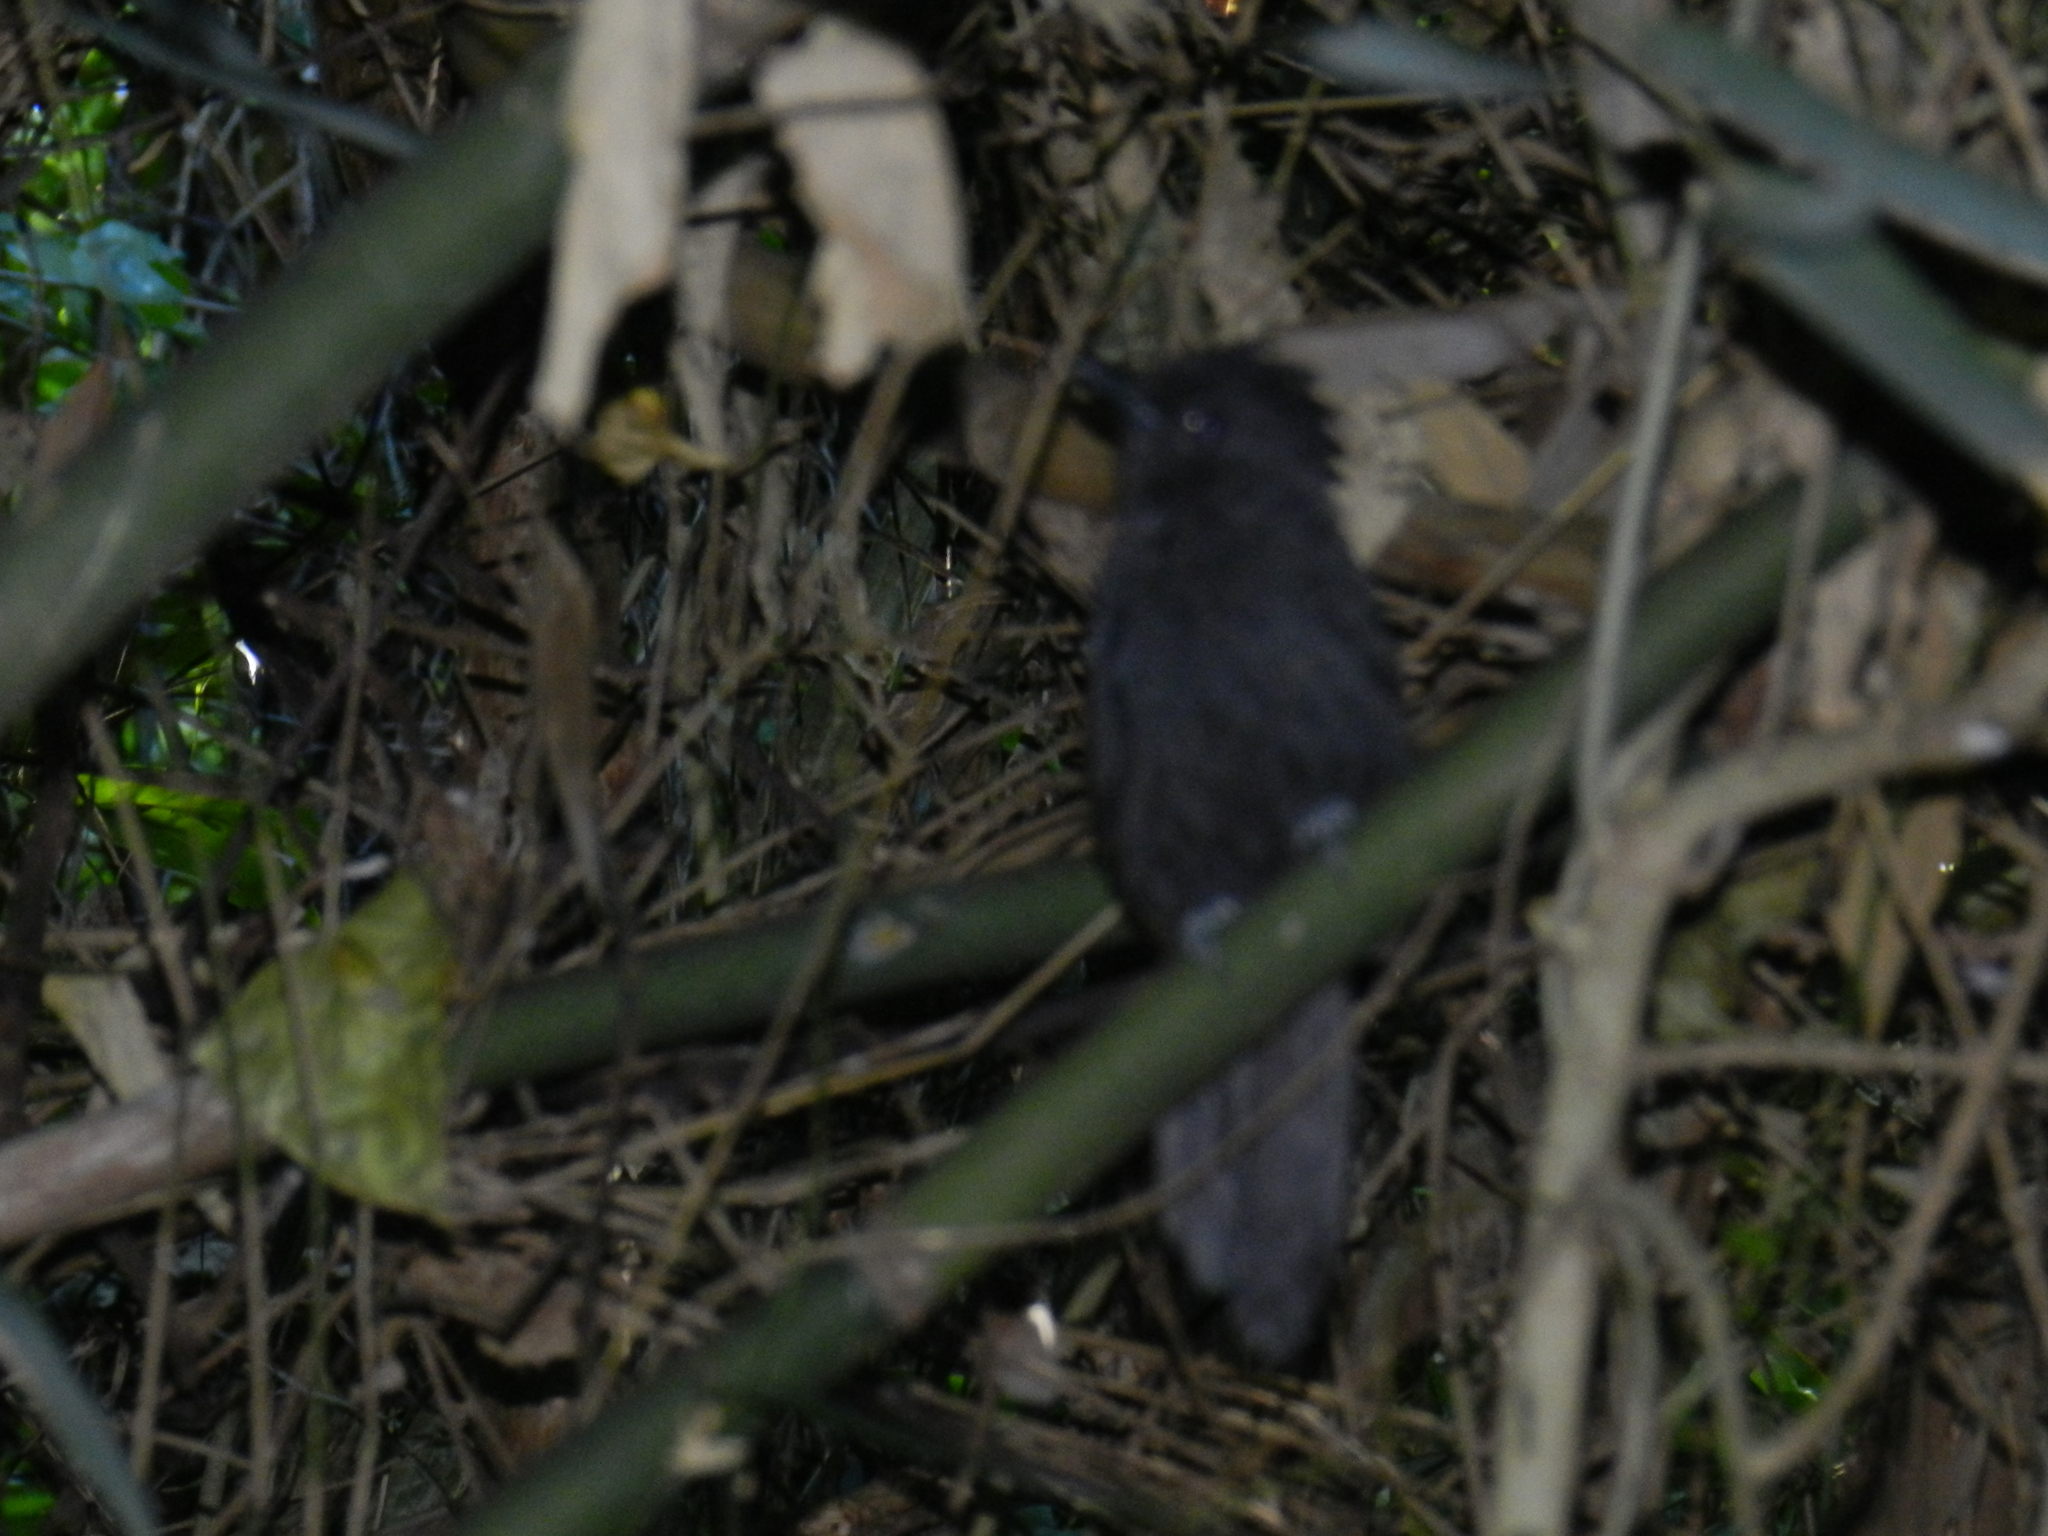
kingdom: Animalia
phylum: Chordata
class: Aves
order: Passeriformes
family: Thamnophilidae
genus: Mackenziaena
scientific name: Mackenziaena severa
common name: Tufted antshrike
